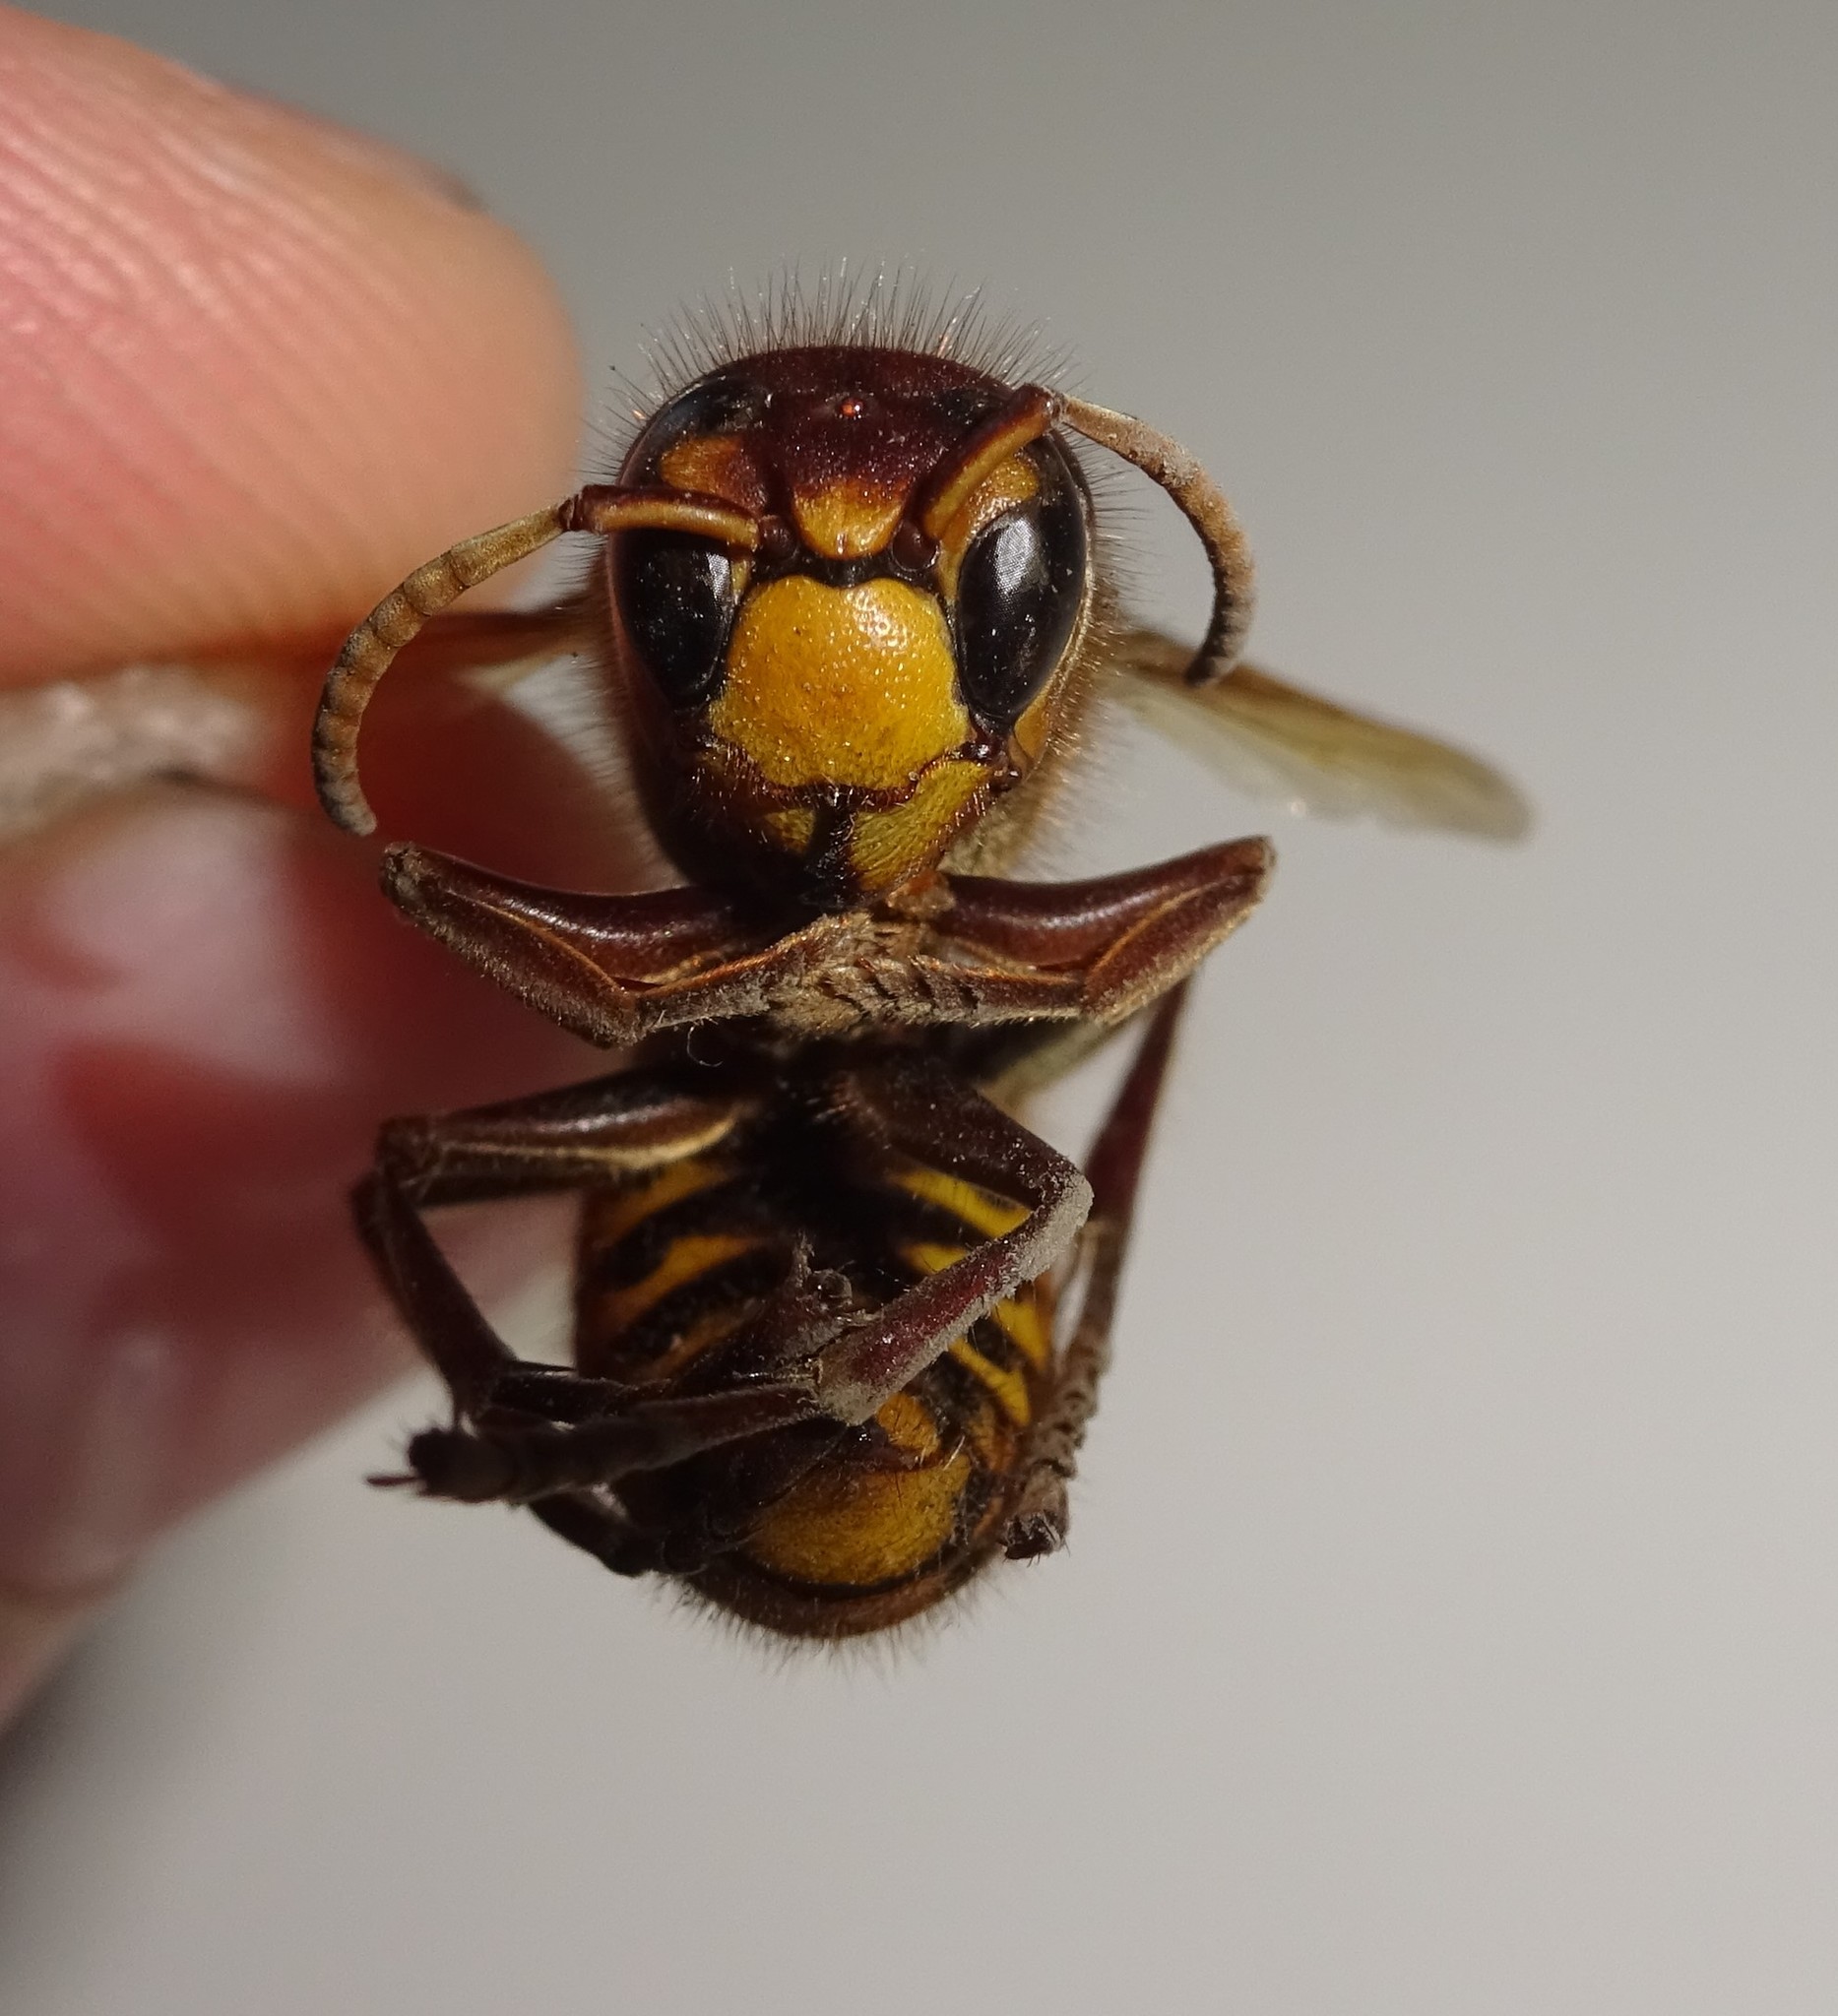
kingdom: Animalia
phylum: Arthropoda
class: Insecta
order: Hymenoptera
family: Vespidae
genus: Vespa
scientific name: Vespa crabro
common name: Hornet
